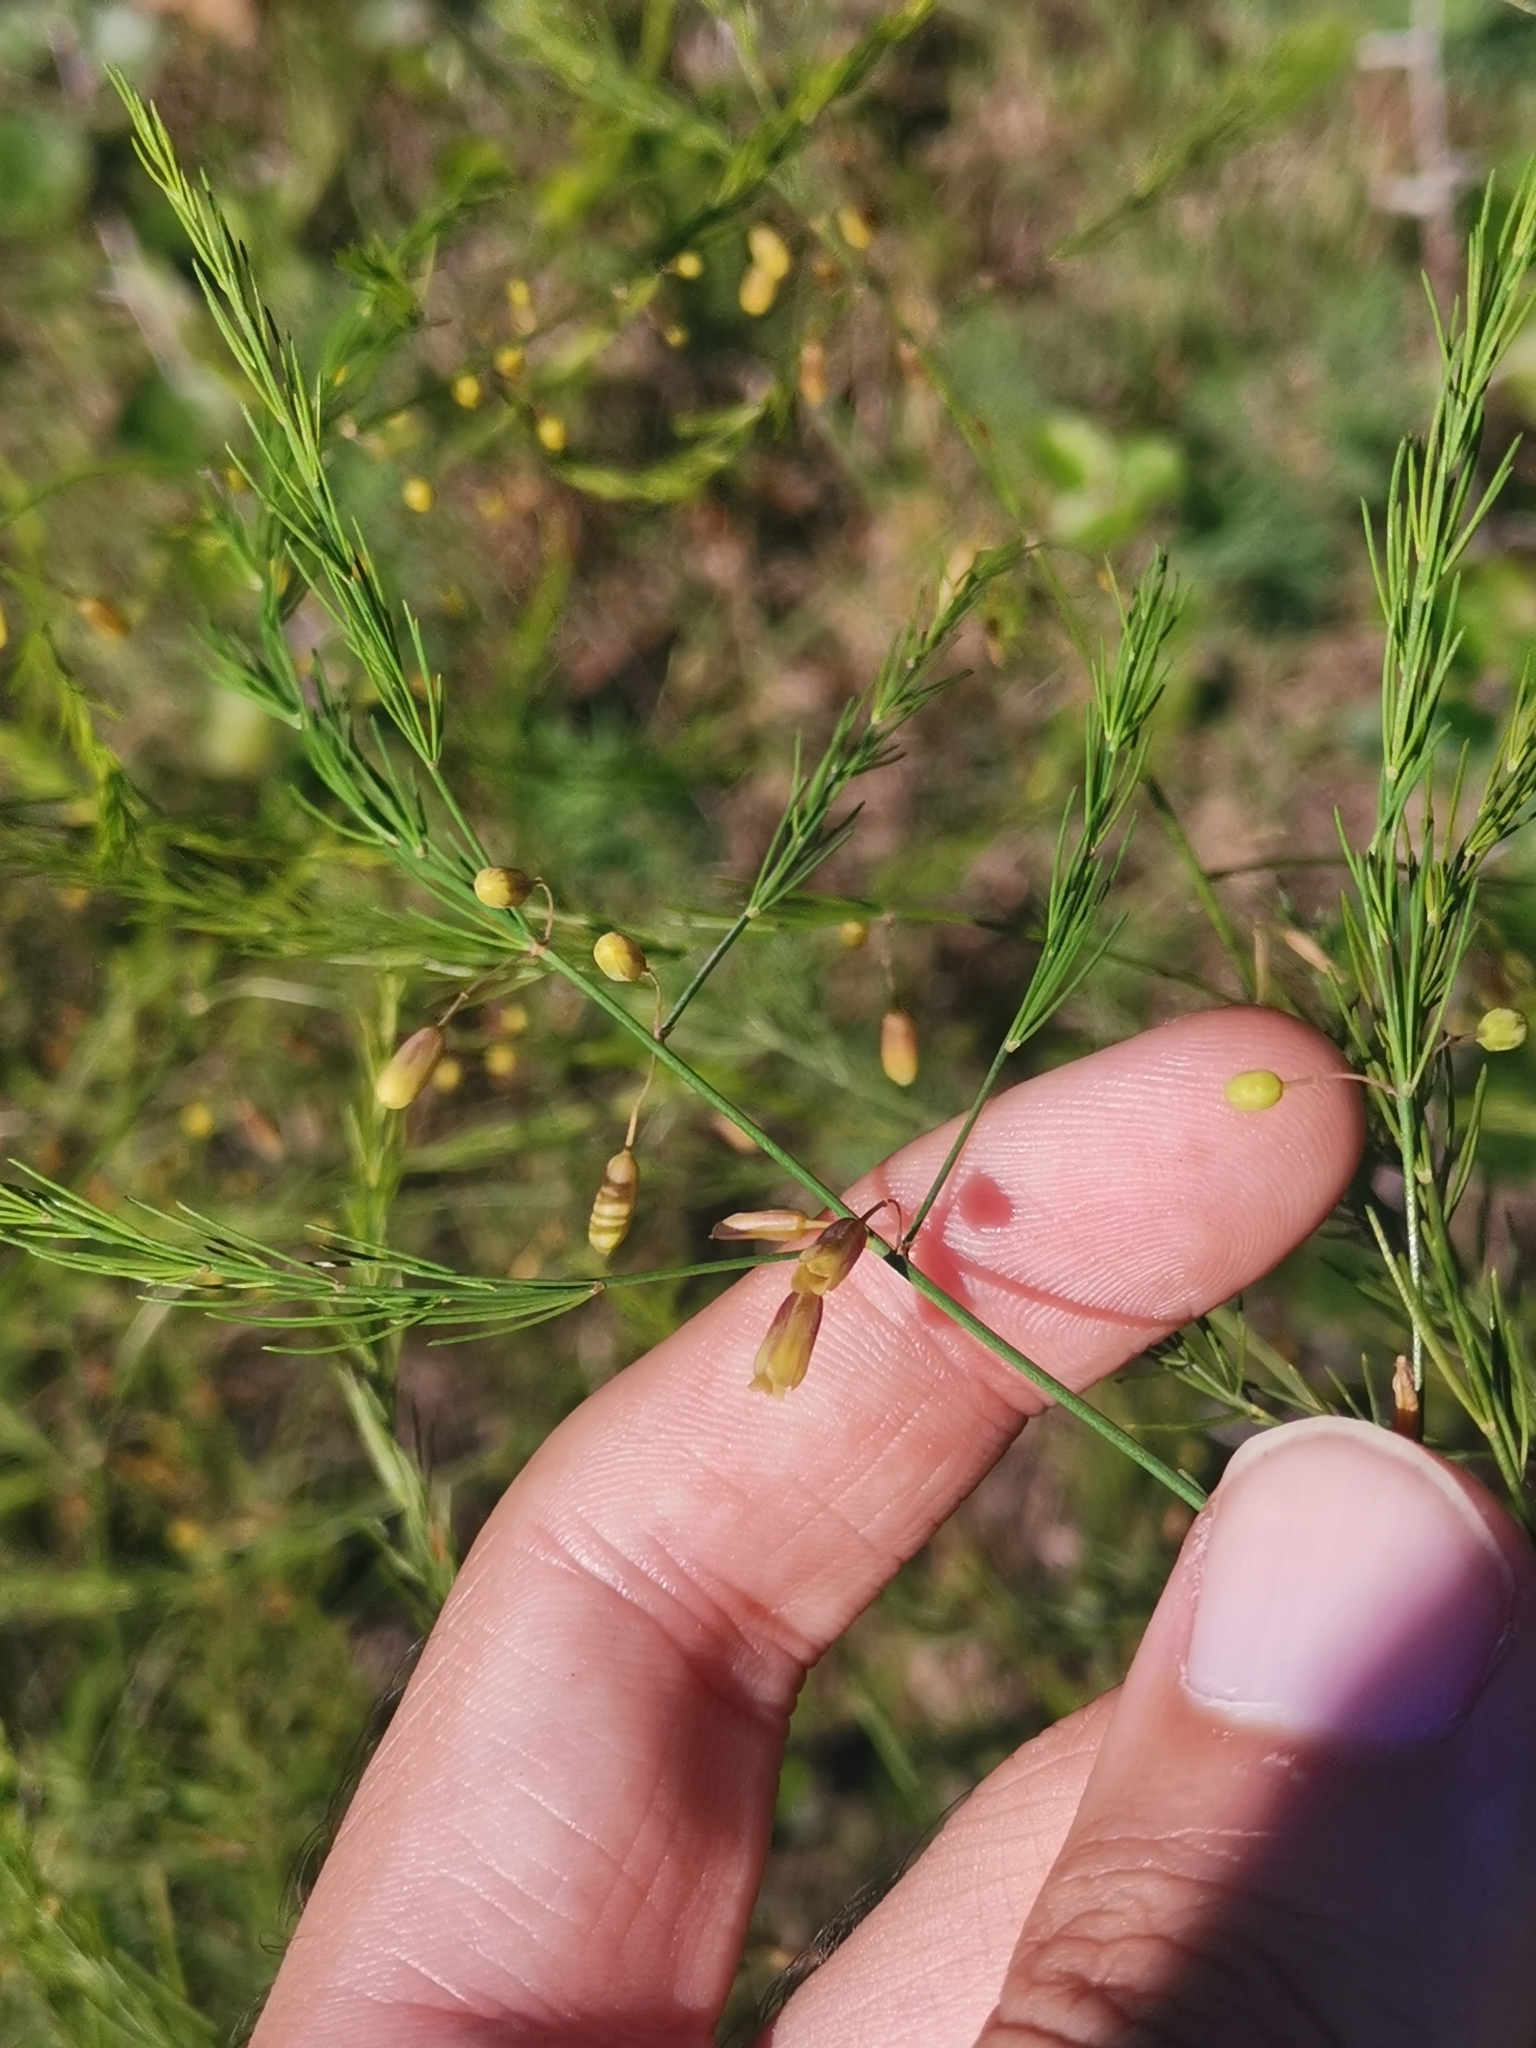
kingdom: Plantae
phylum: Tracheophyta
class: Liliopsida
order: Asparagales
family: Asparagaceae
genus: Asparagus
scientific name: Asparagus officinalis
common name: Garden asparagus
